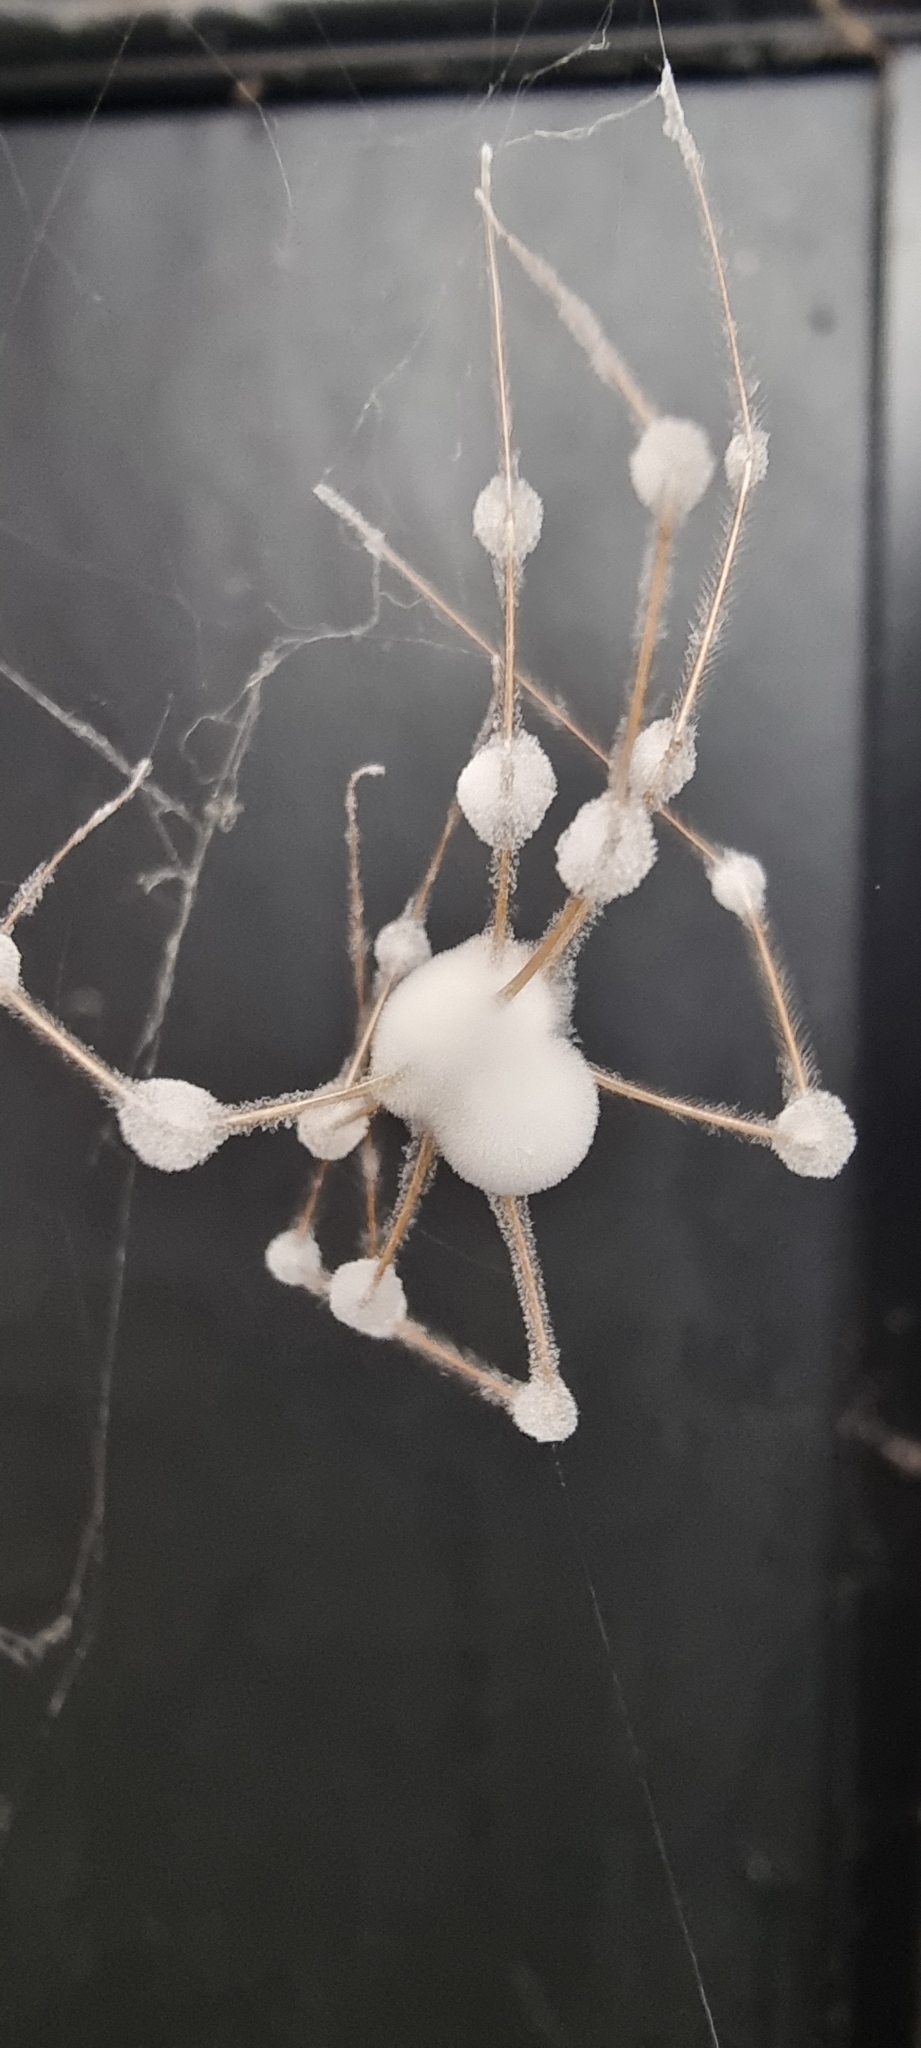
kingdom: Fungi
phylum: Ascomycota
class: Sordariomycetes
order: Hypocreales
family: Cordycipitaceae
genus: Lecanicillium
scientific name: Lecanicillium tenuipes
